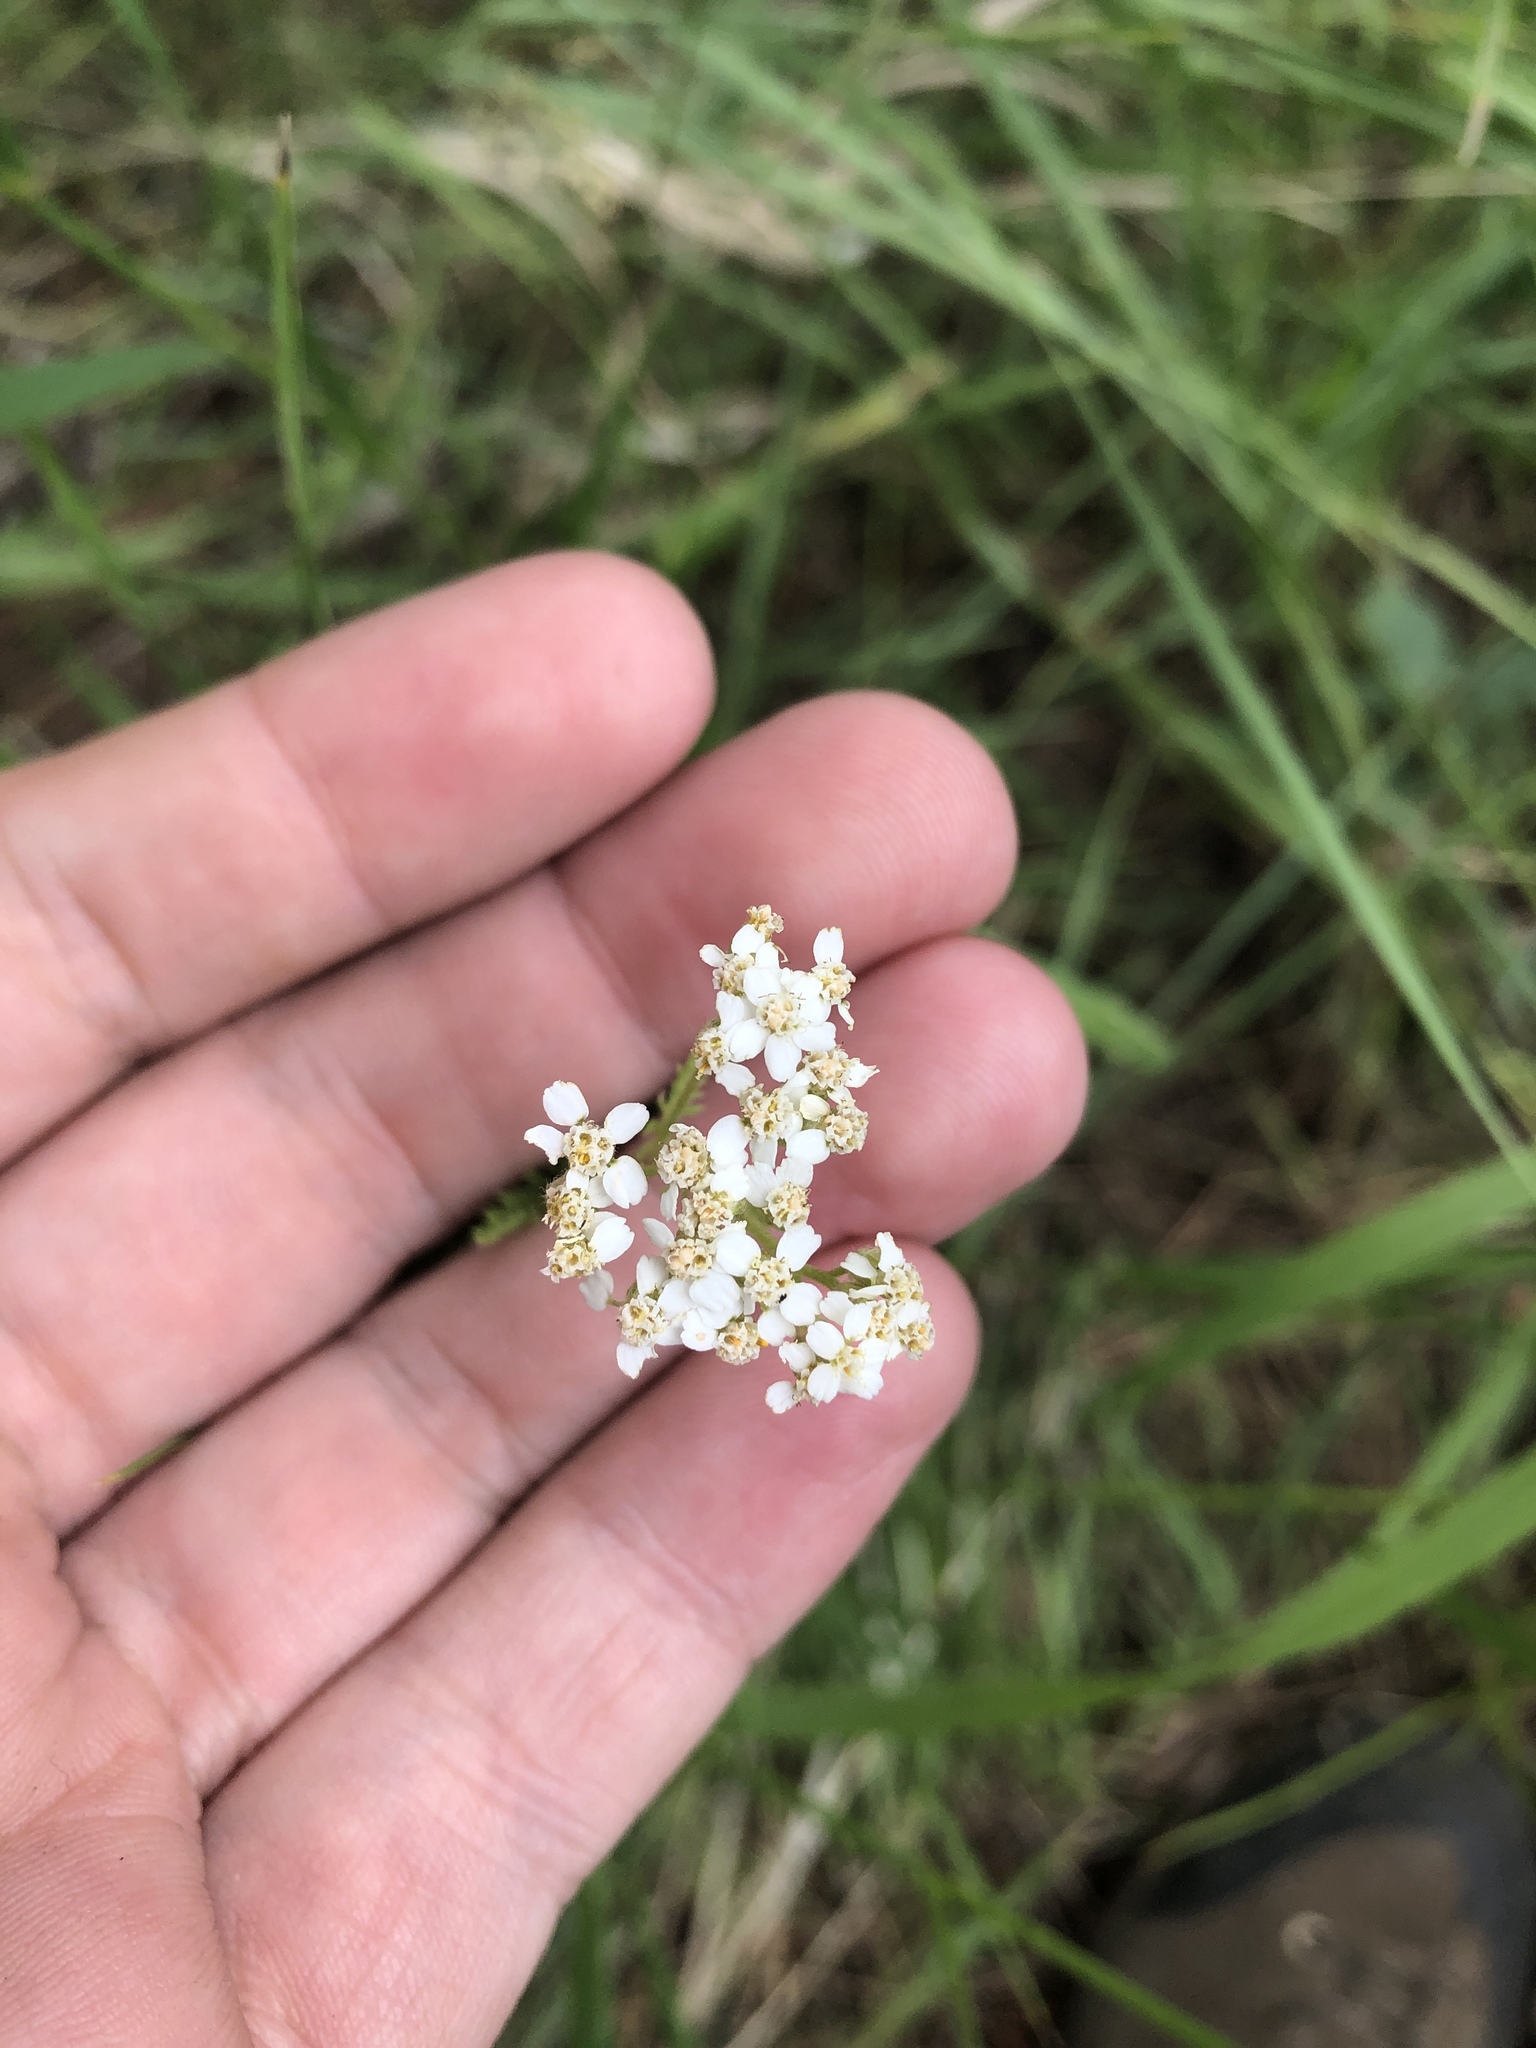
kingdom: Plantae
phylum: Tracheophyta
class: Magnoliopsida
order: Asterales
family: Asteraceae
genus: Achillea
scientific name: Achillea millefolium
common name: Yarrow
